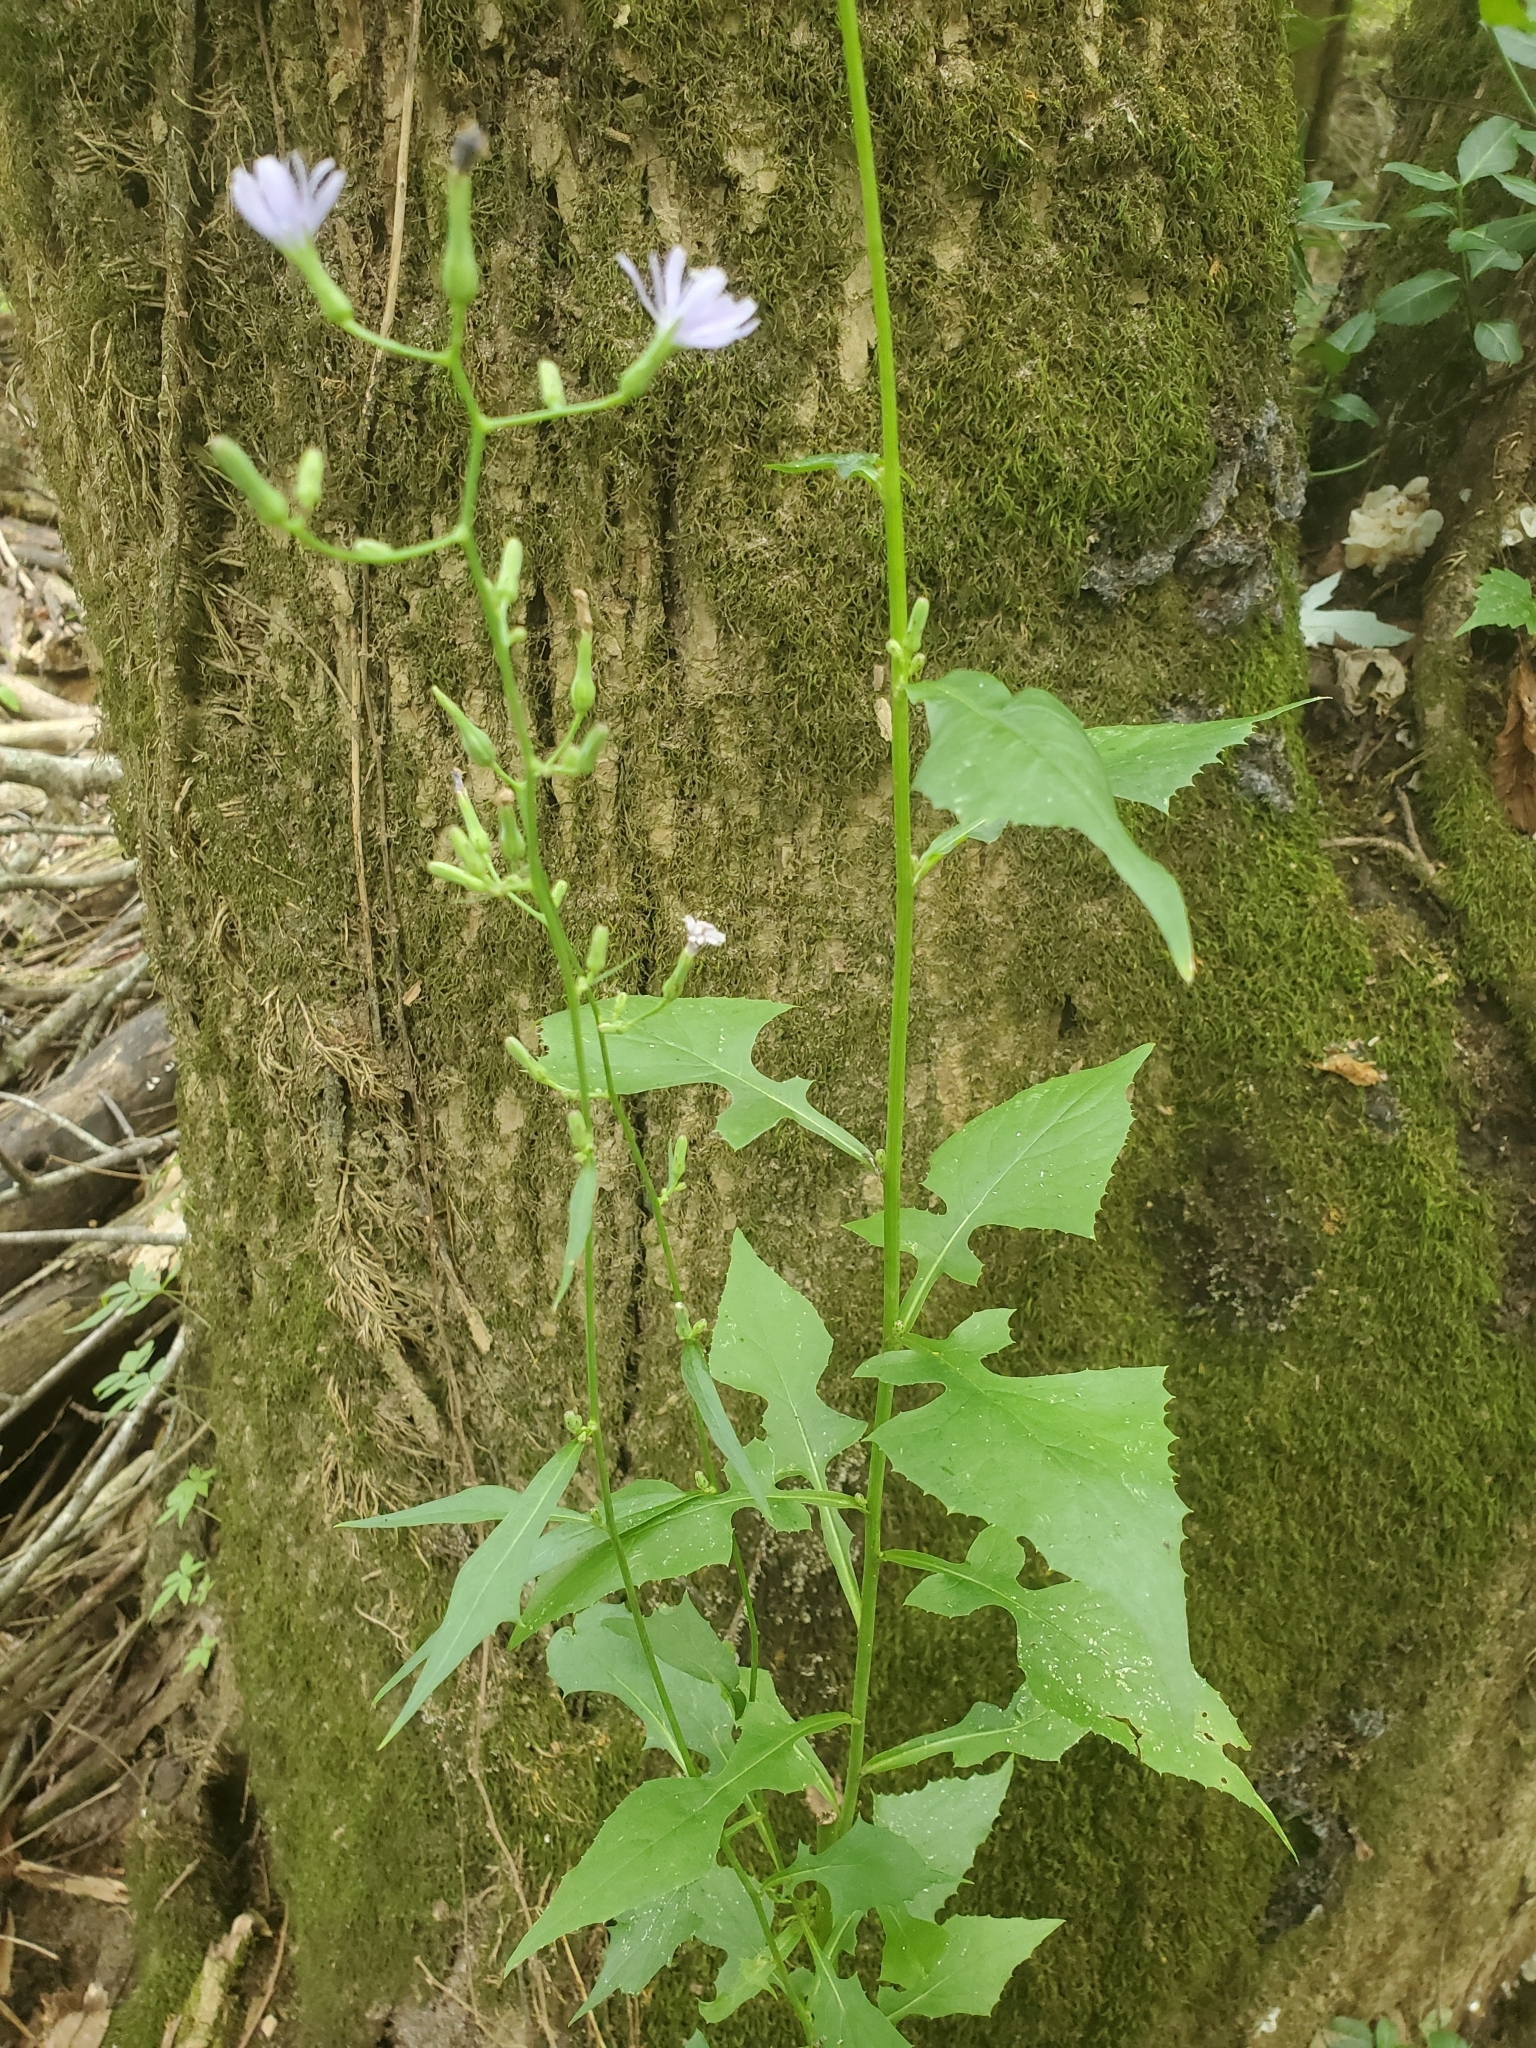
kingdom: Plantae
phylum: Tracheophyta
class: Magnoliopsida
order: Asterales
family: Asteraceae
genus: Lactuca
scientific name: Lactuca floridana
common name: Woodland lettuce
